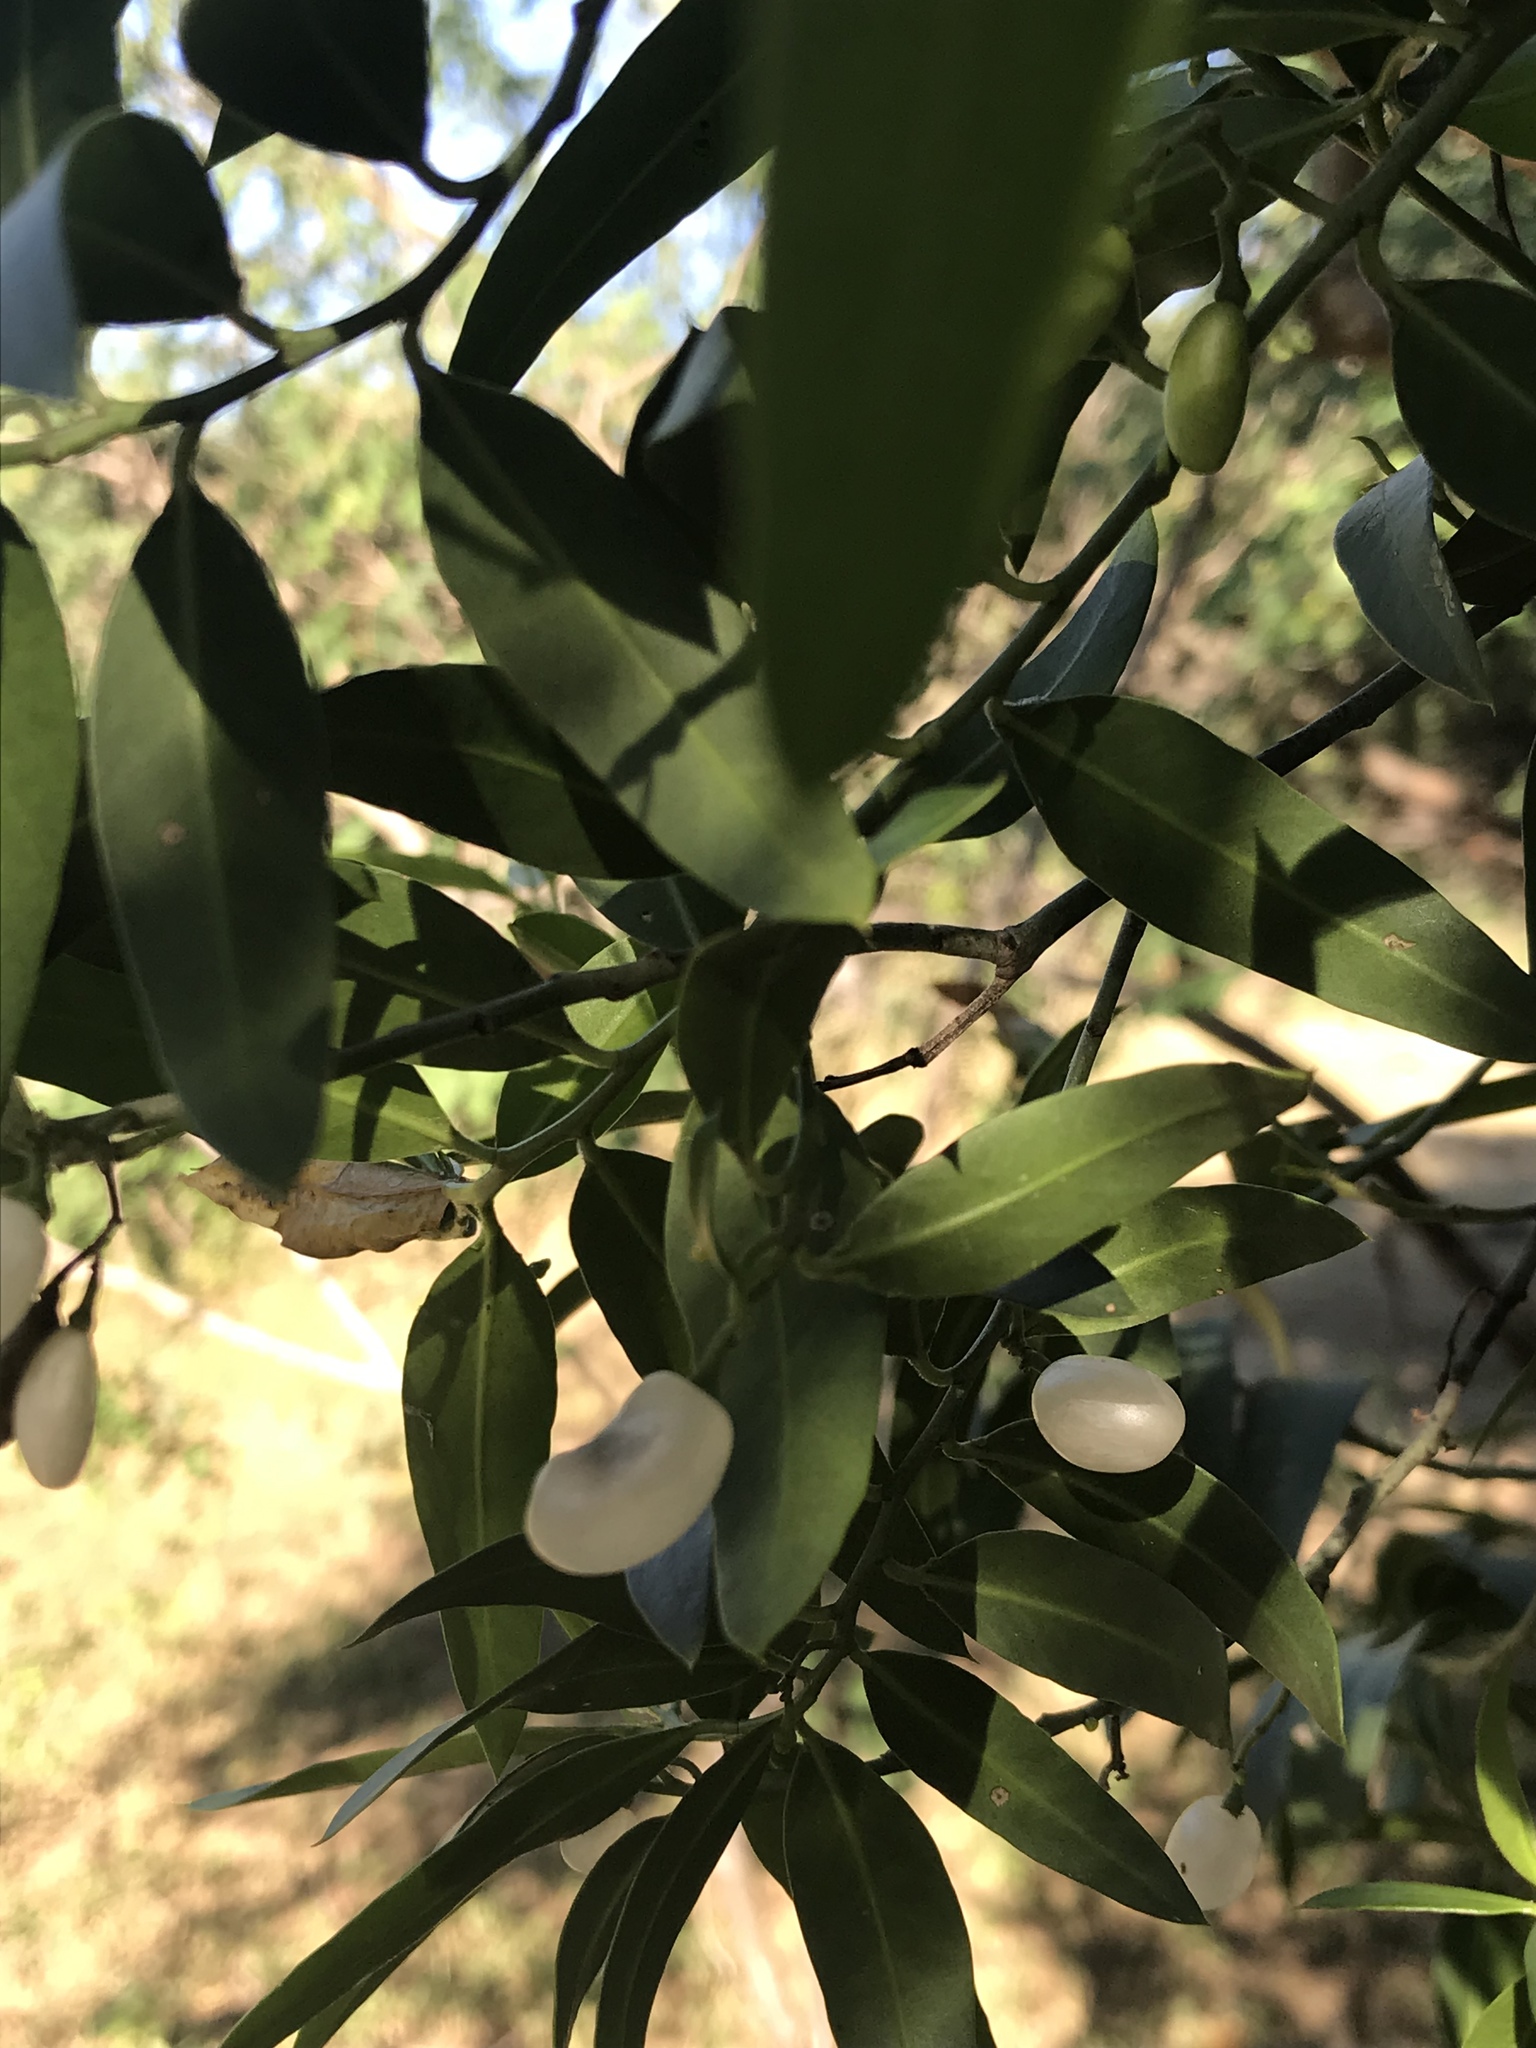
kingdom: Plantae
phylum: Tracheophyta
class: Magnoliopsida
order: Gentianales
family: Apocynaceae
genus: Vallesia
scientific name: Vallesia glabra
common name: Pearlberry
